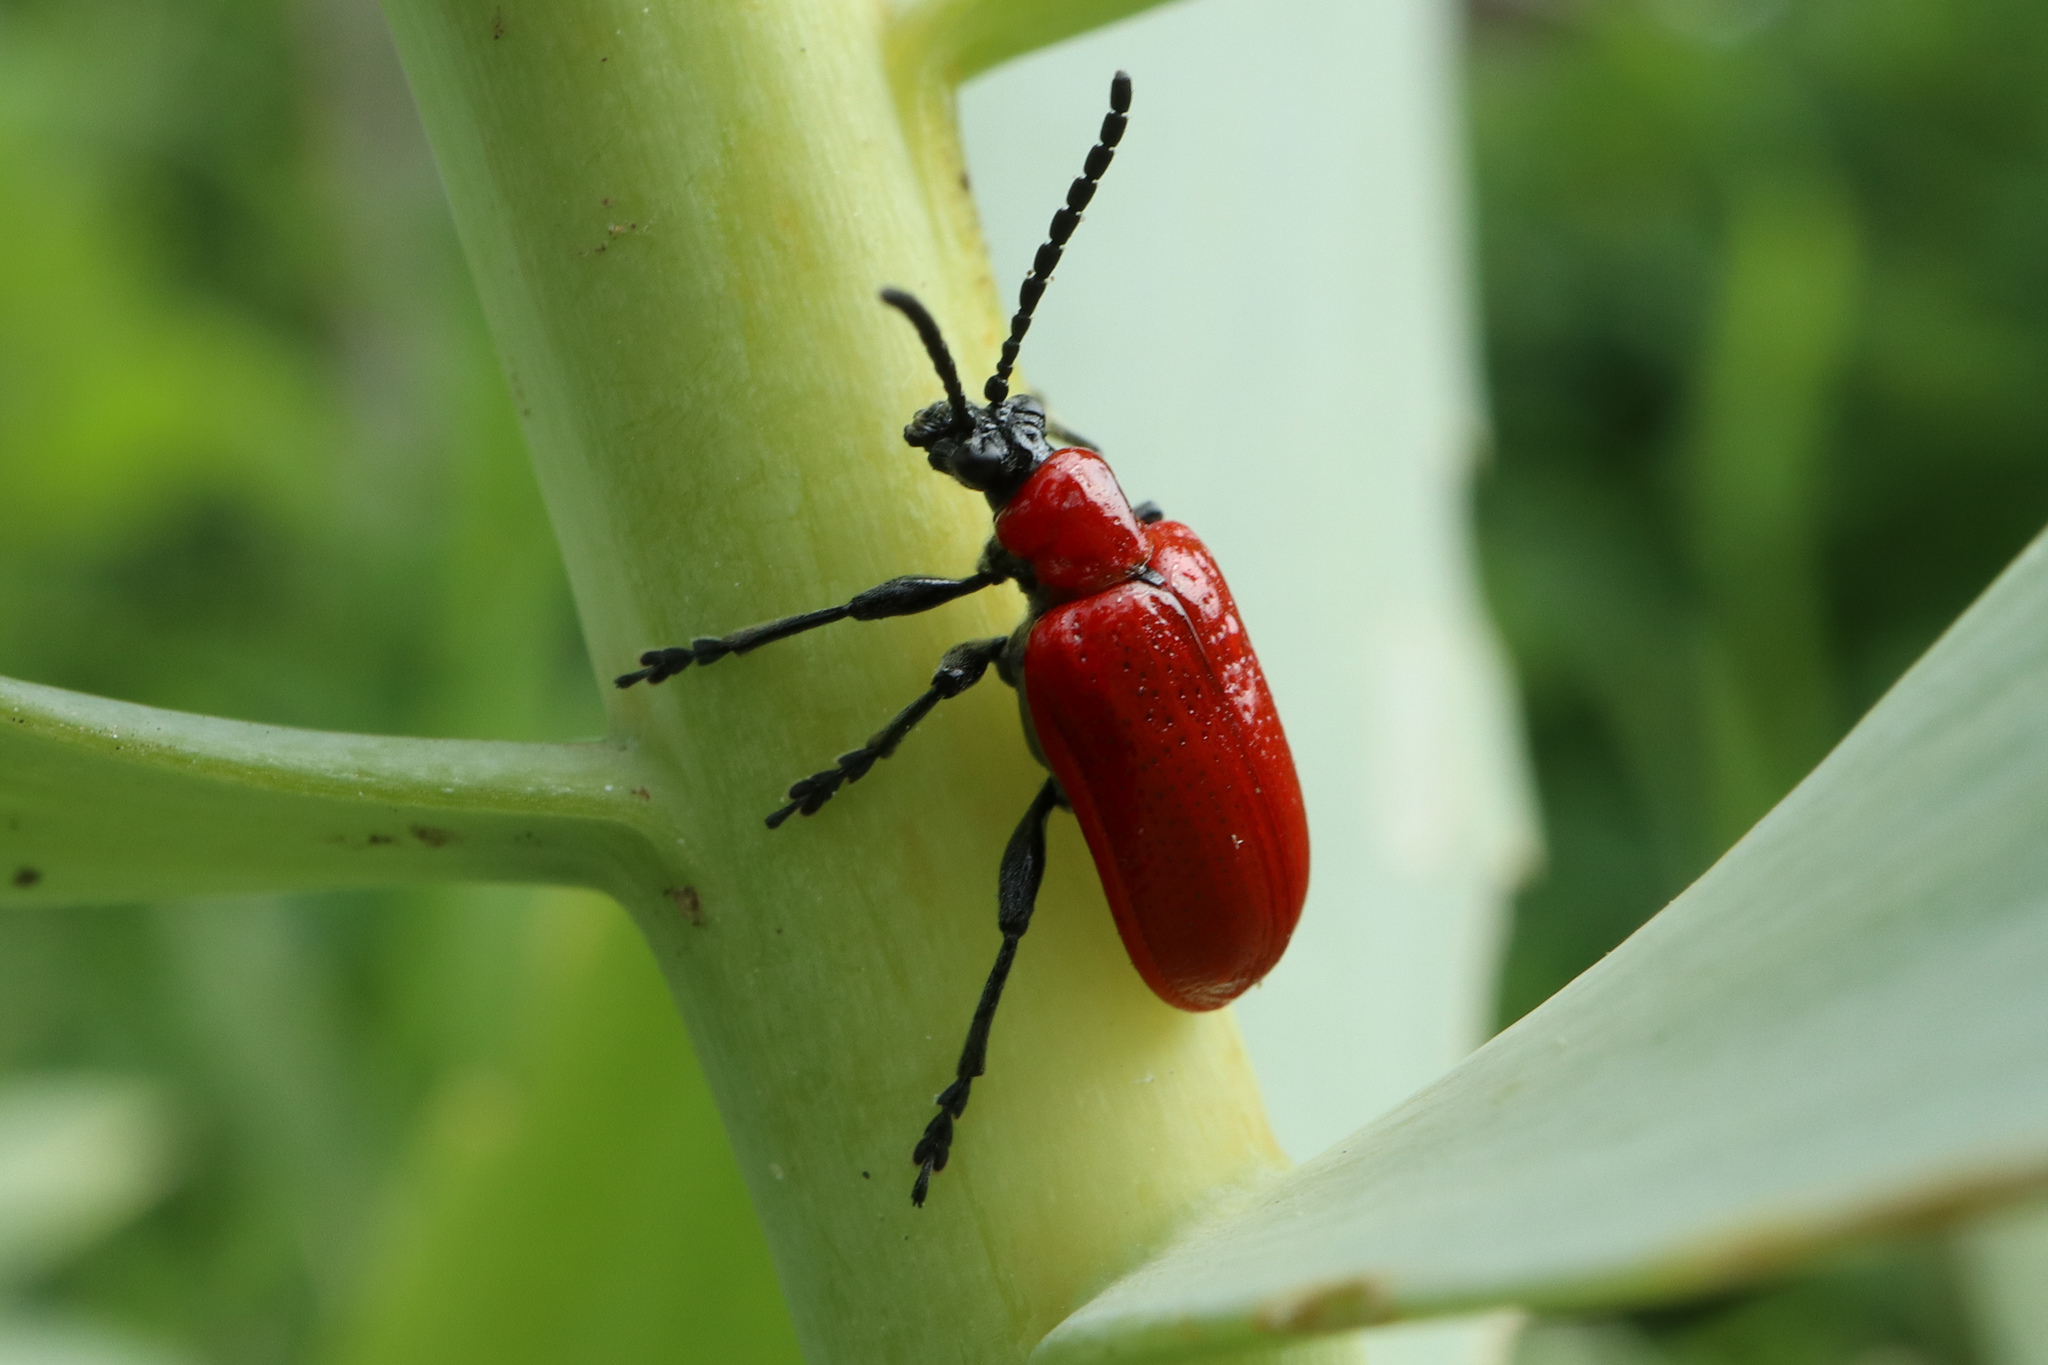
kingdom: Animalia
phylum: Arthropoda
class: Insecta
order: Coleoptera
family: Chrysomelidae
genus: Lilioceris
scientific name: Lilioceris lilii
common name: Lily beetle
